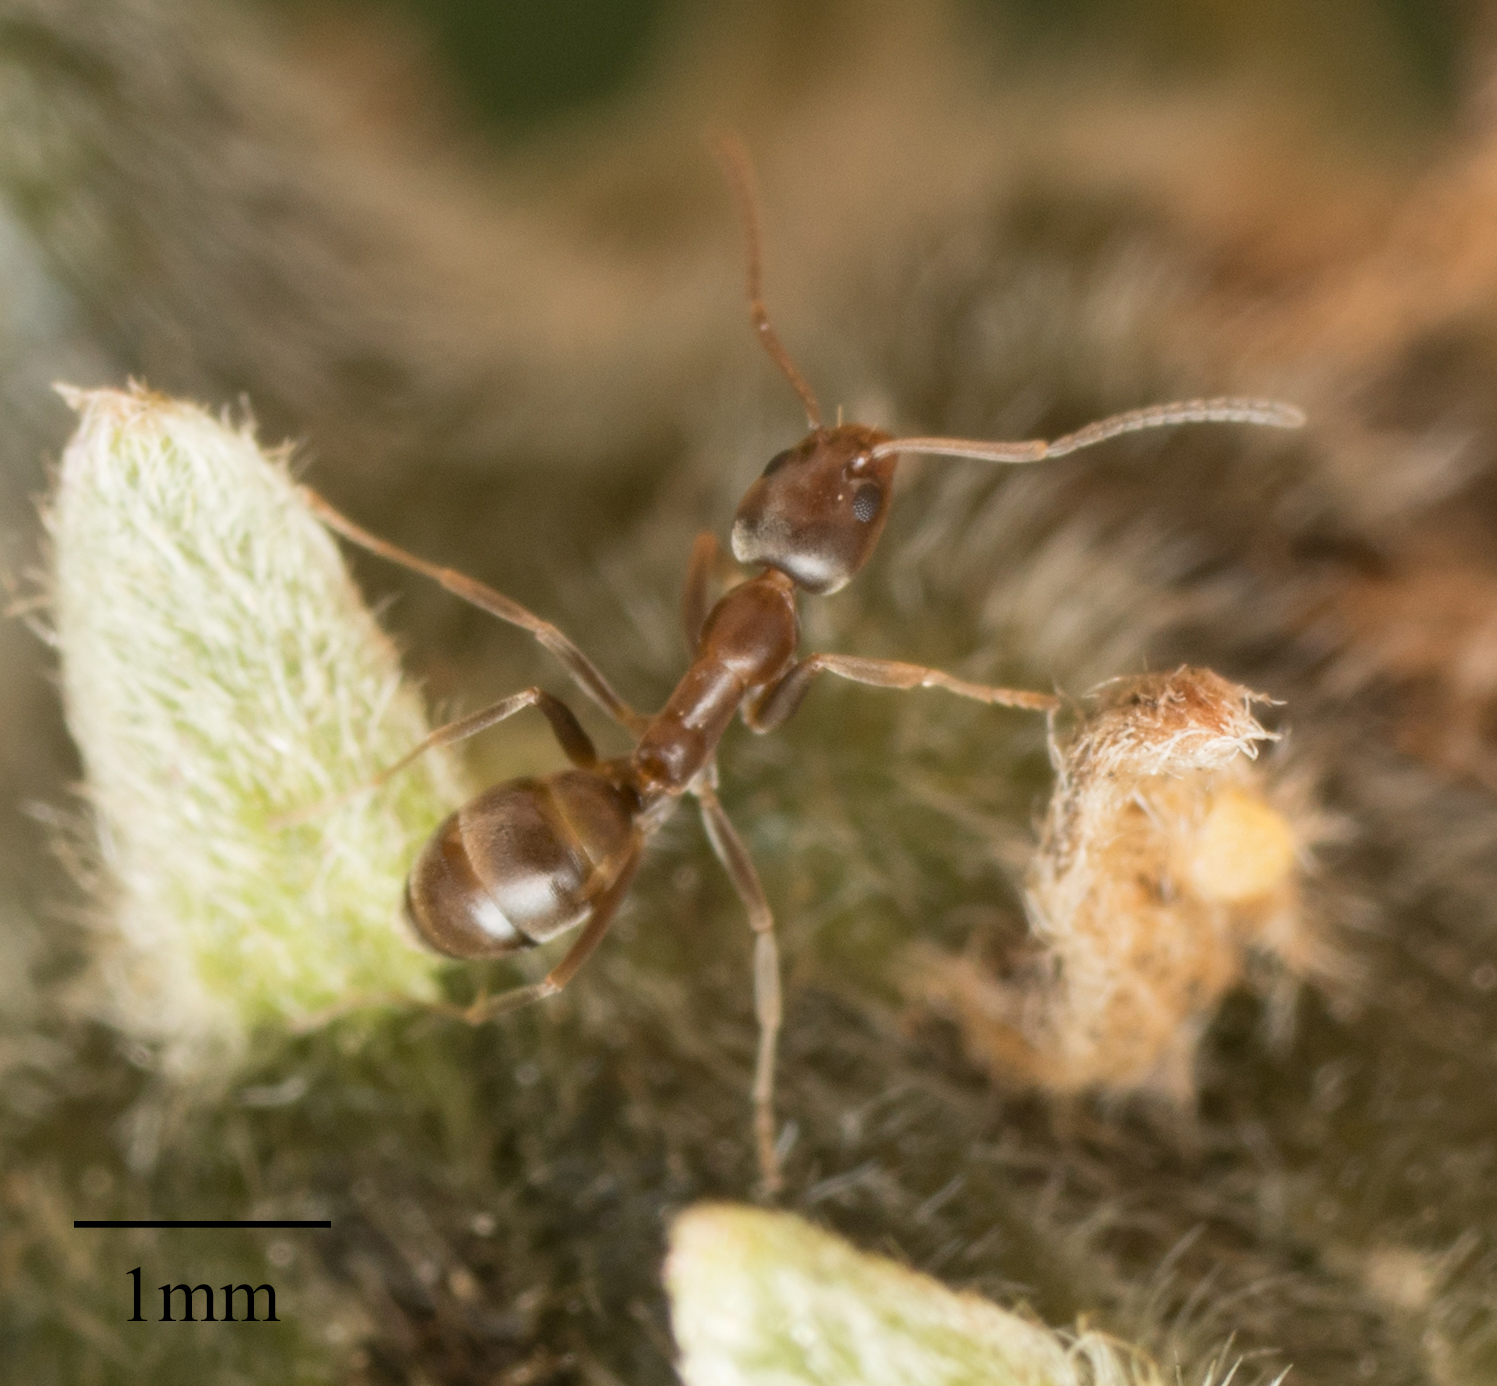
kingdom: Animalia
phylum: Arthropoda
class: Insecta
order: Hymenoptera
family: Formicidae
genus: Linepithema
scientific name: Linepithema humile
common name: Argentine ant
